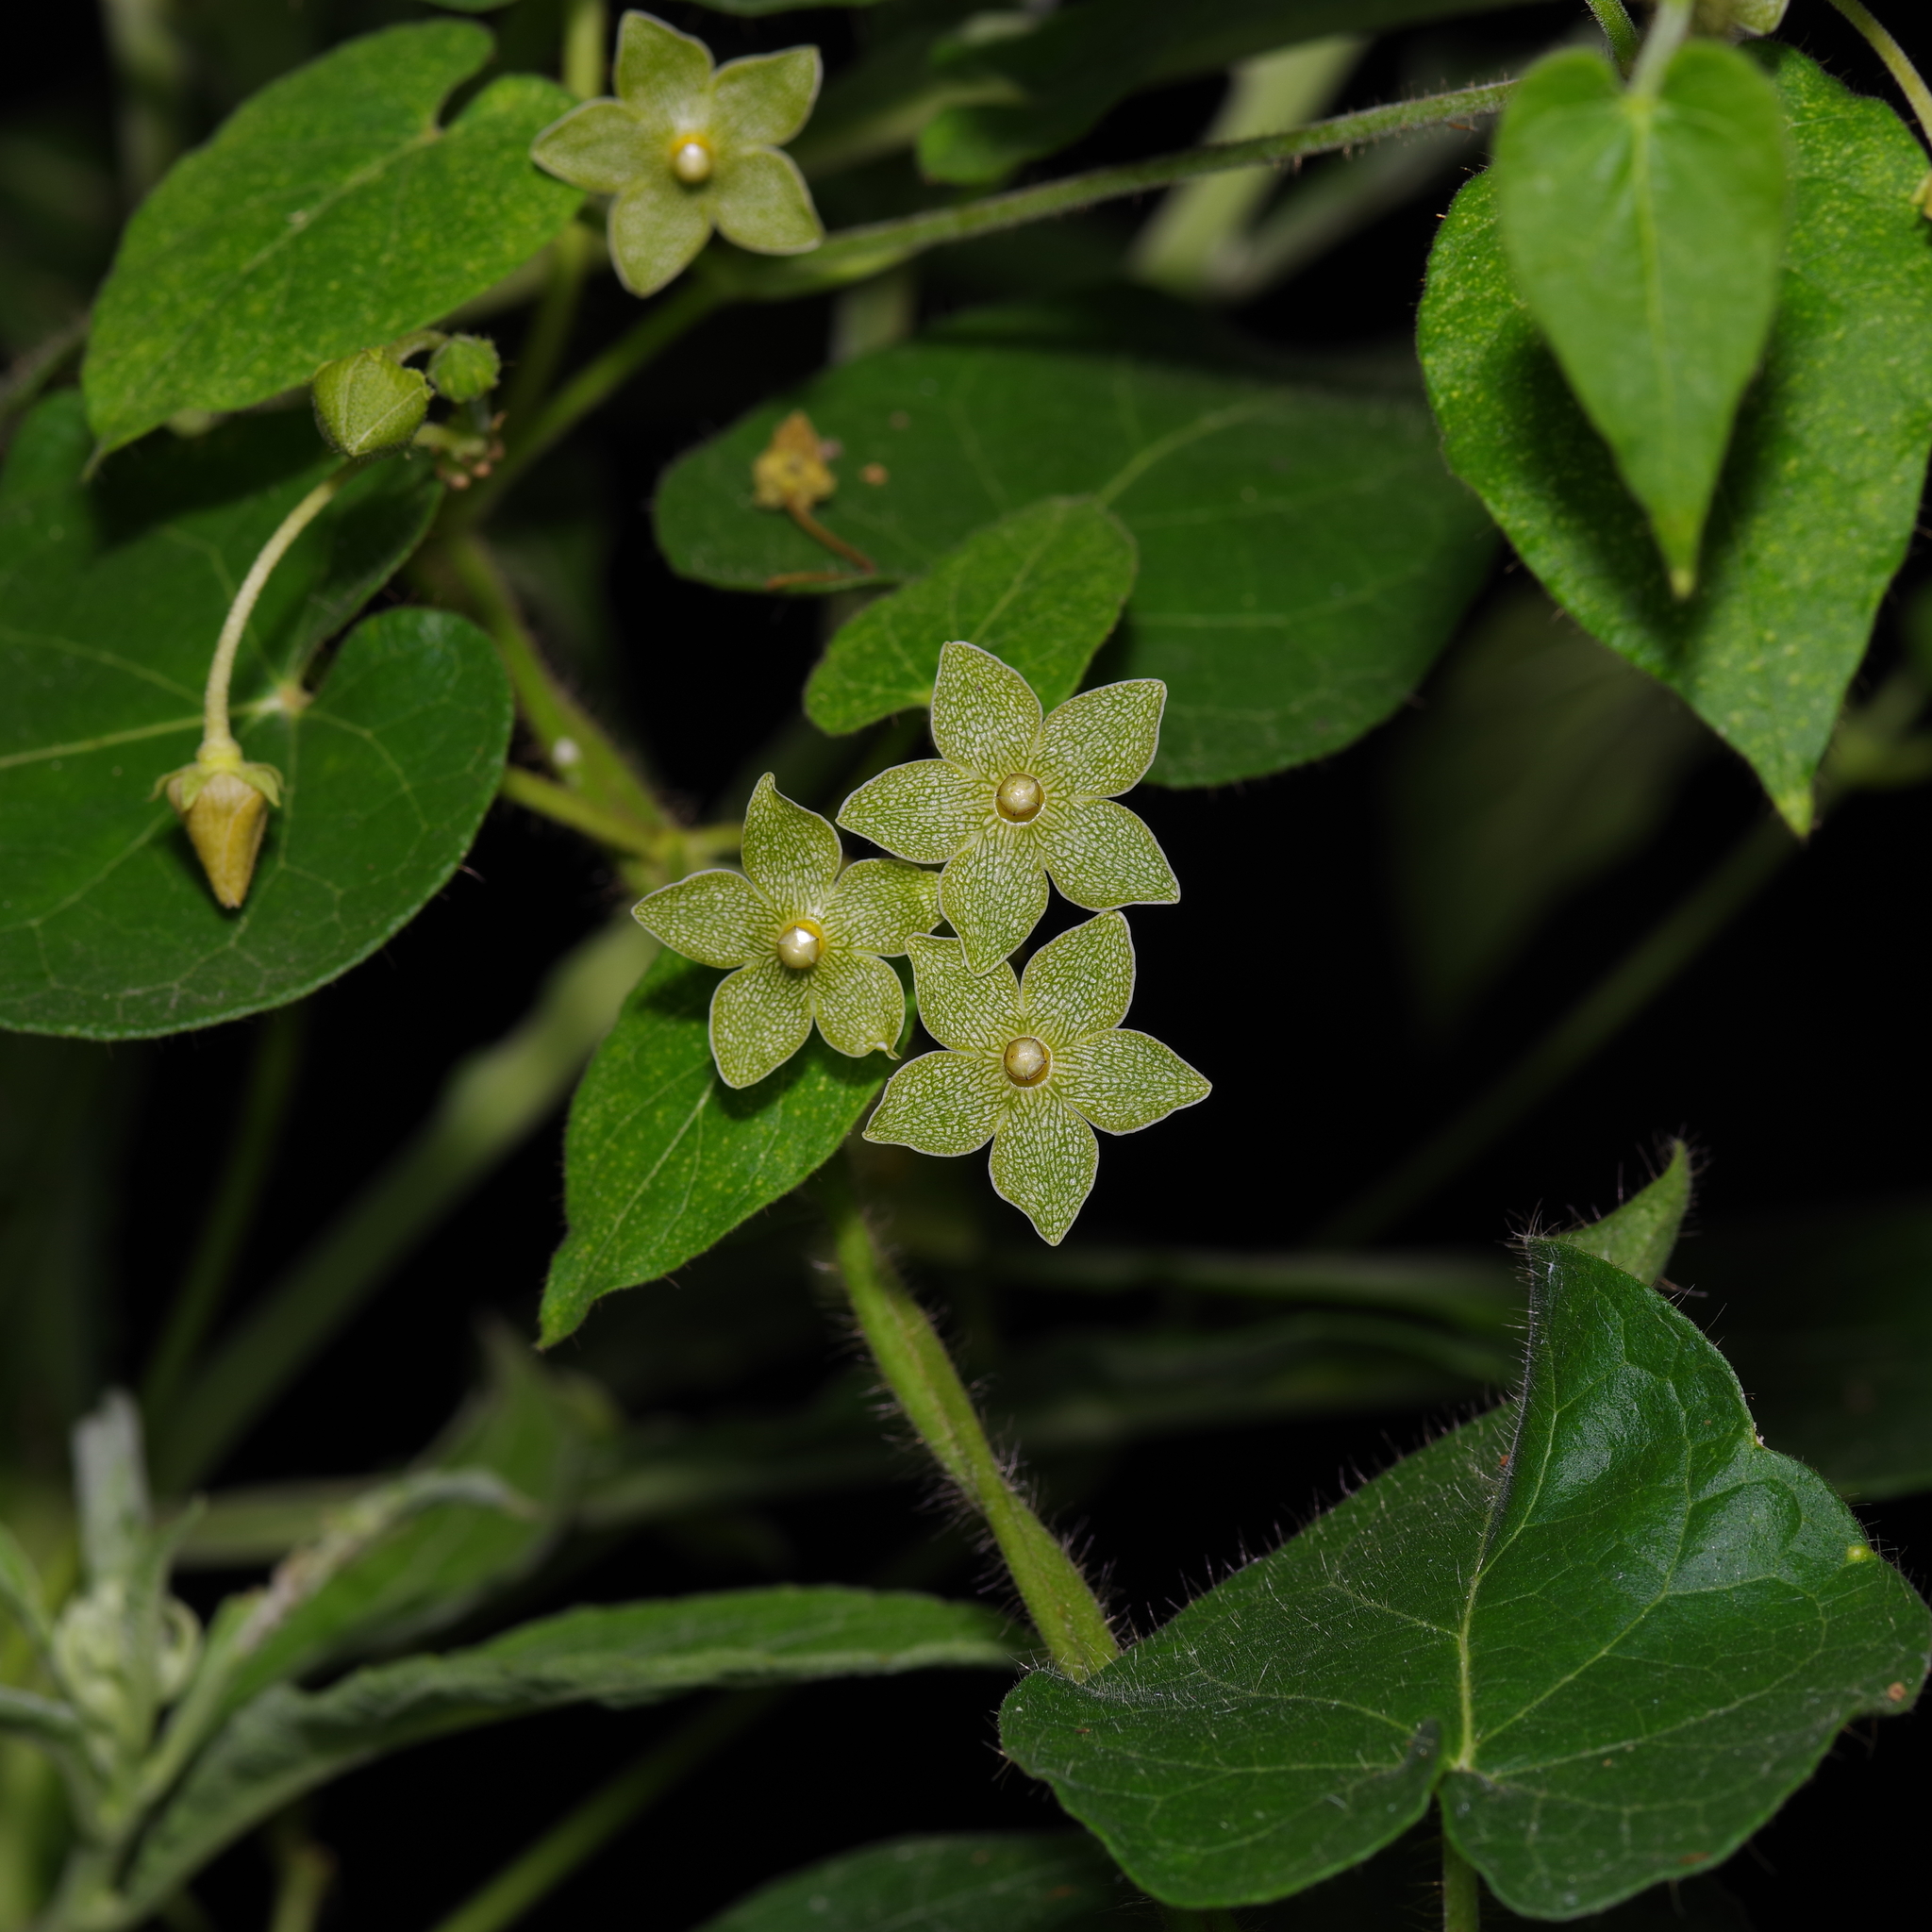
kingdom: Plantae
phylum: Tracheophyta
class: Magnoliopsida
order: Gentianales
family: Apocynaceae
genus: Dictyanthus
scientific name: Dictyanthus reticulatus
